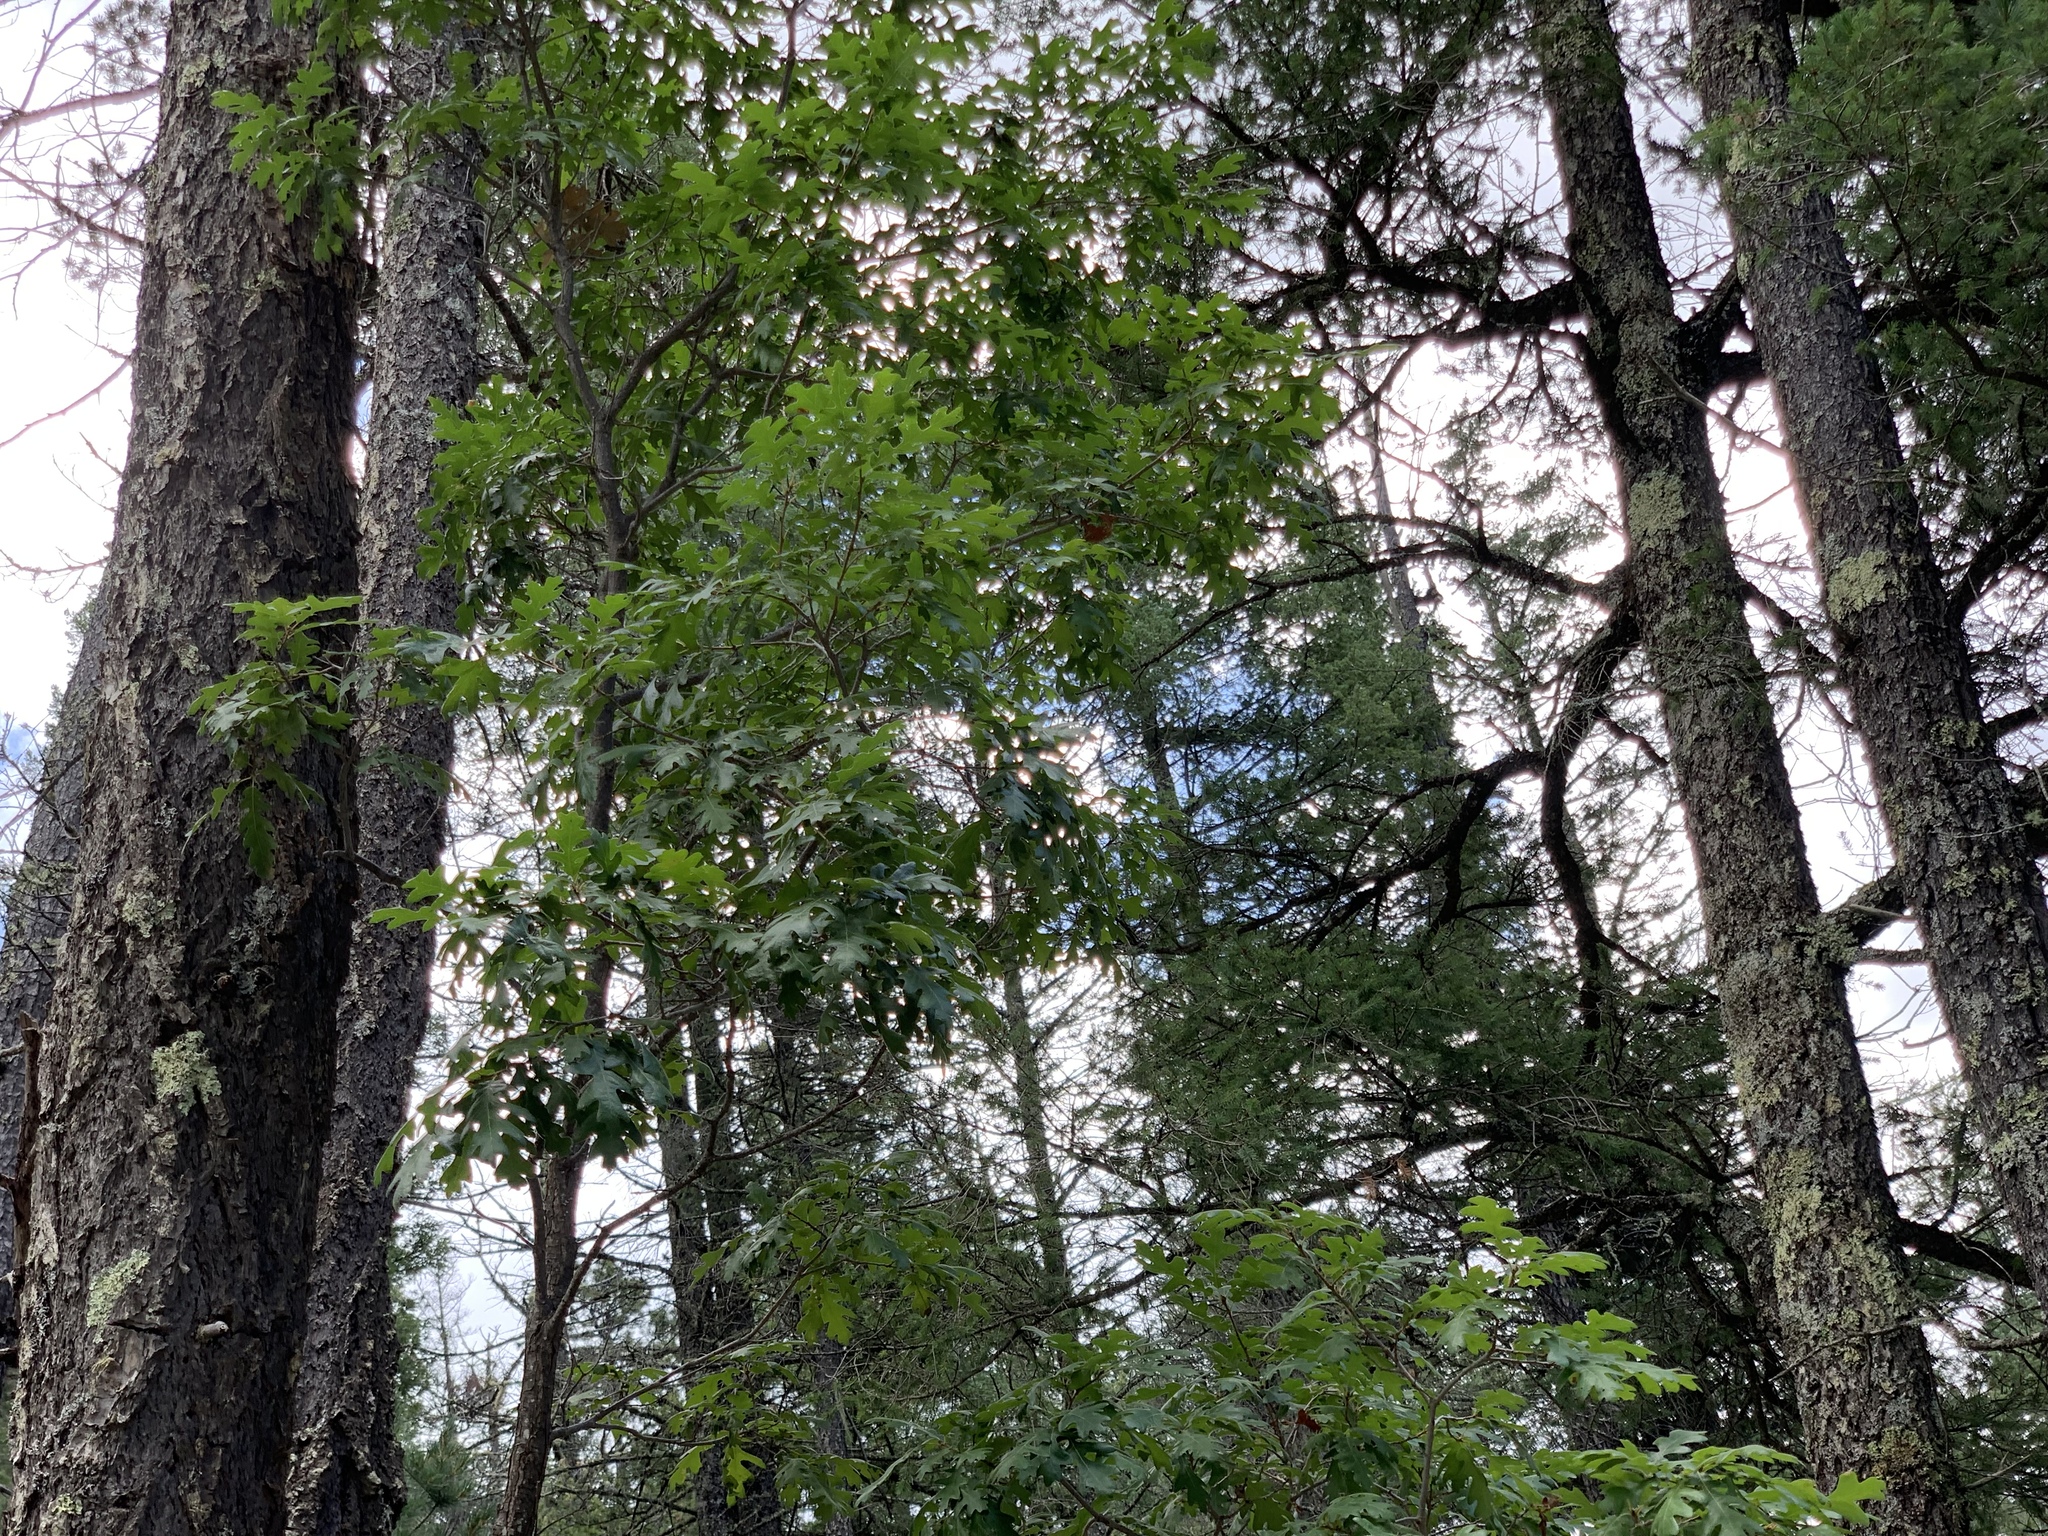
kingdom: Plantae
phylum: Tracheophyta
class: Magnoliopsida
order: Fagales
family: Fagaceae
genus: Quercus
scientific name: Quercus gambelii
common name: Gambel oak
